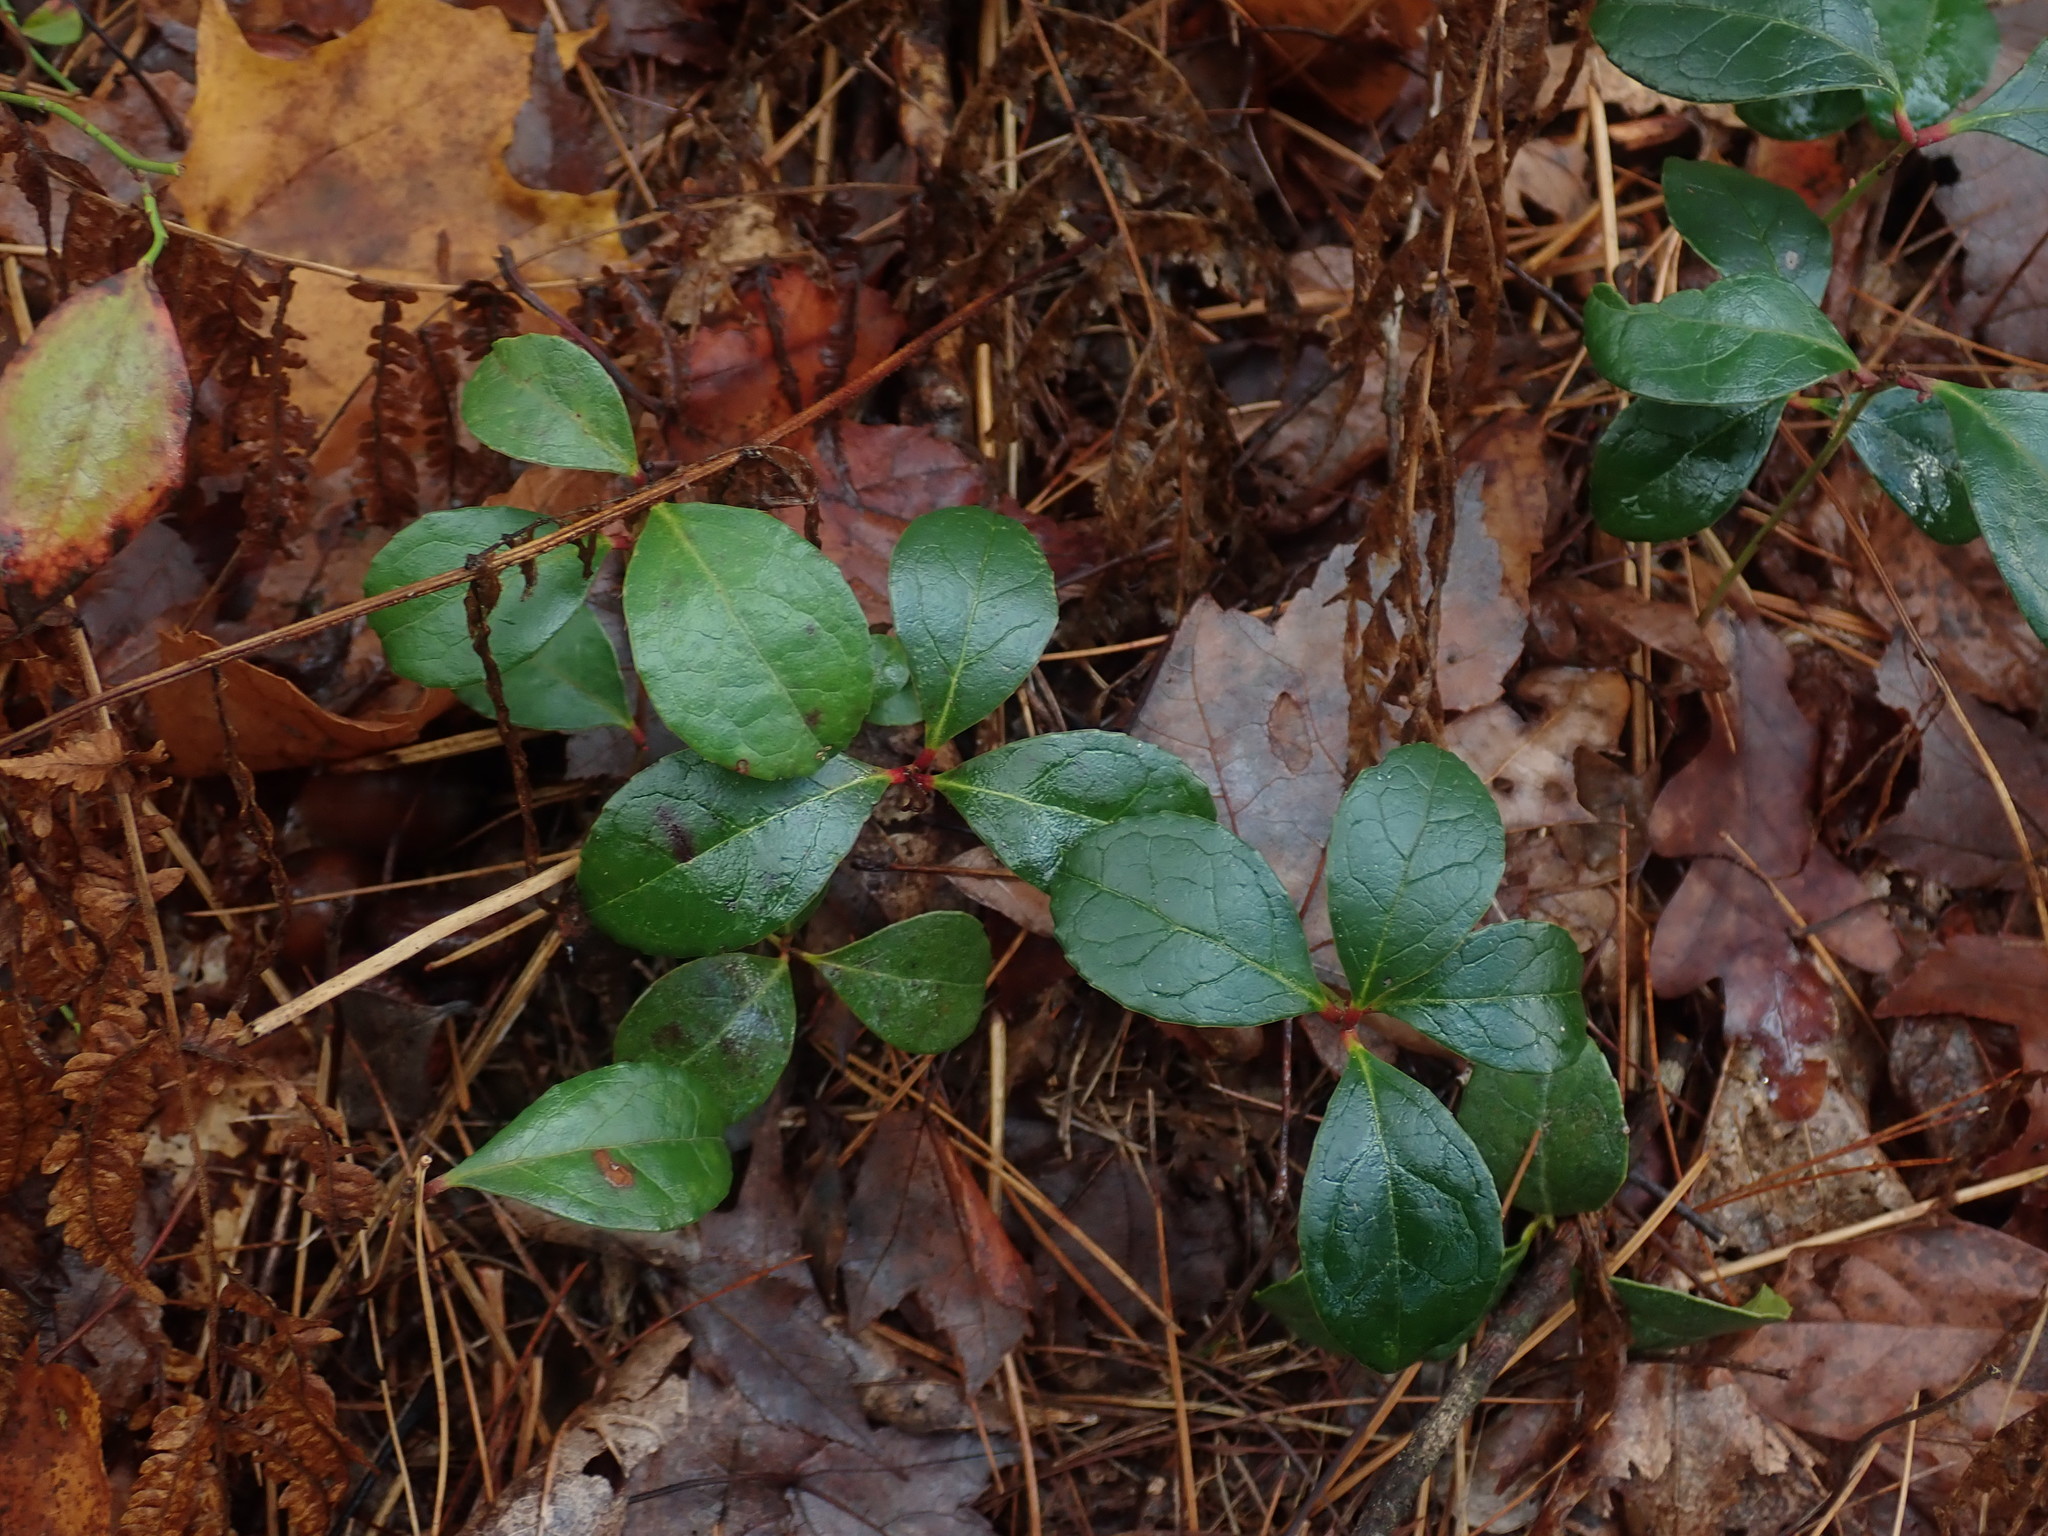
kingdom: Plantae
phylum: Tracheophyta
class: Magnoliopsida
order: Ericales
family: Ericaceae
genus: Gaultheria
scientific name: Gaultheria procumbens
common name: Checkerberry
